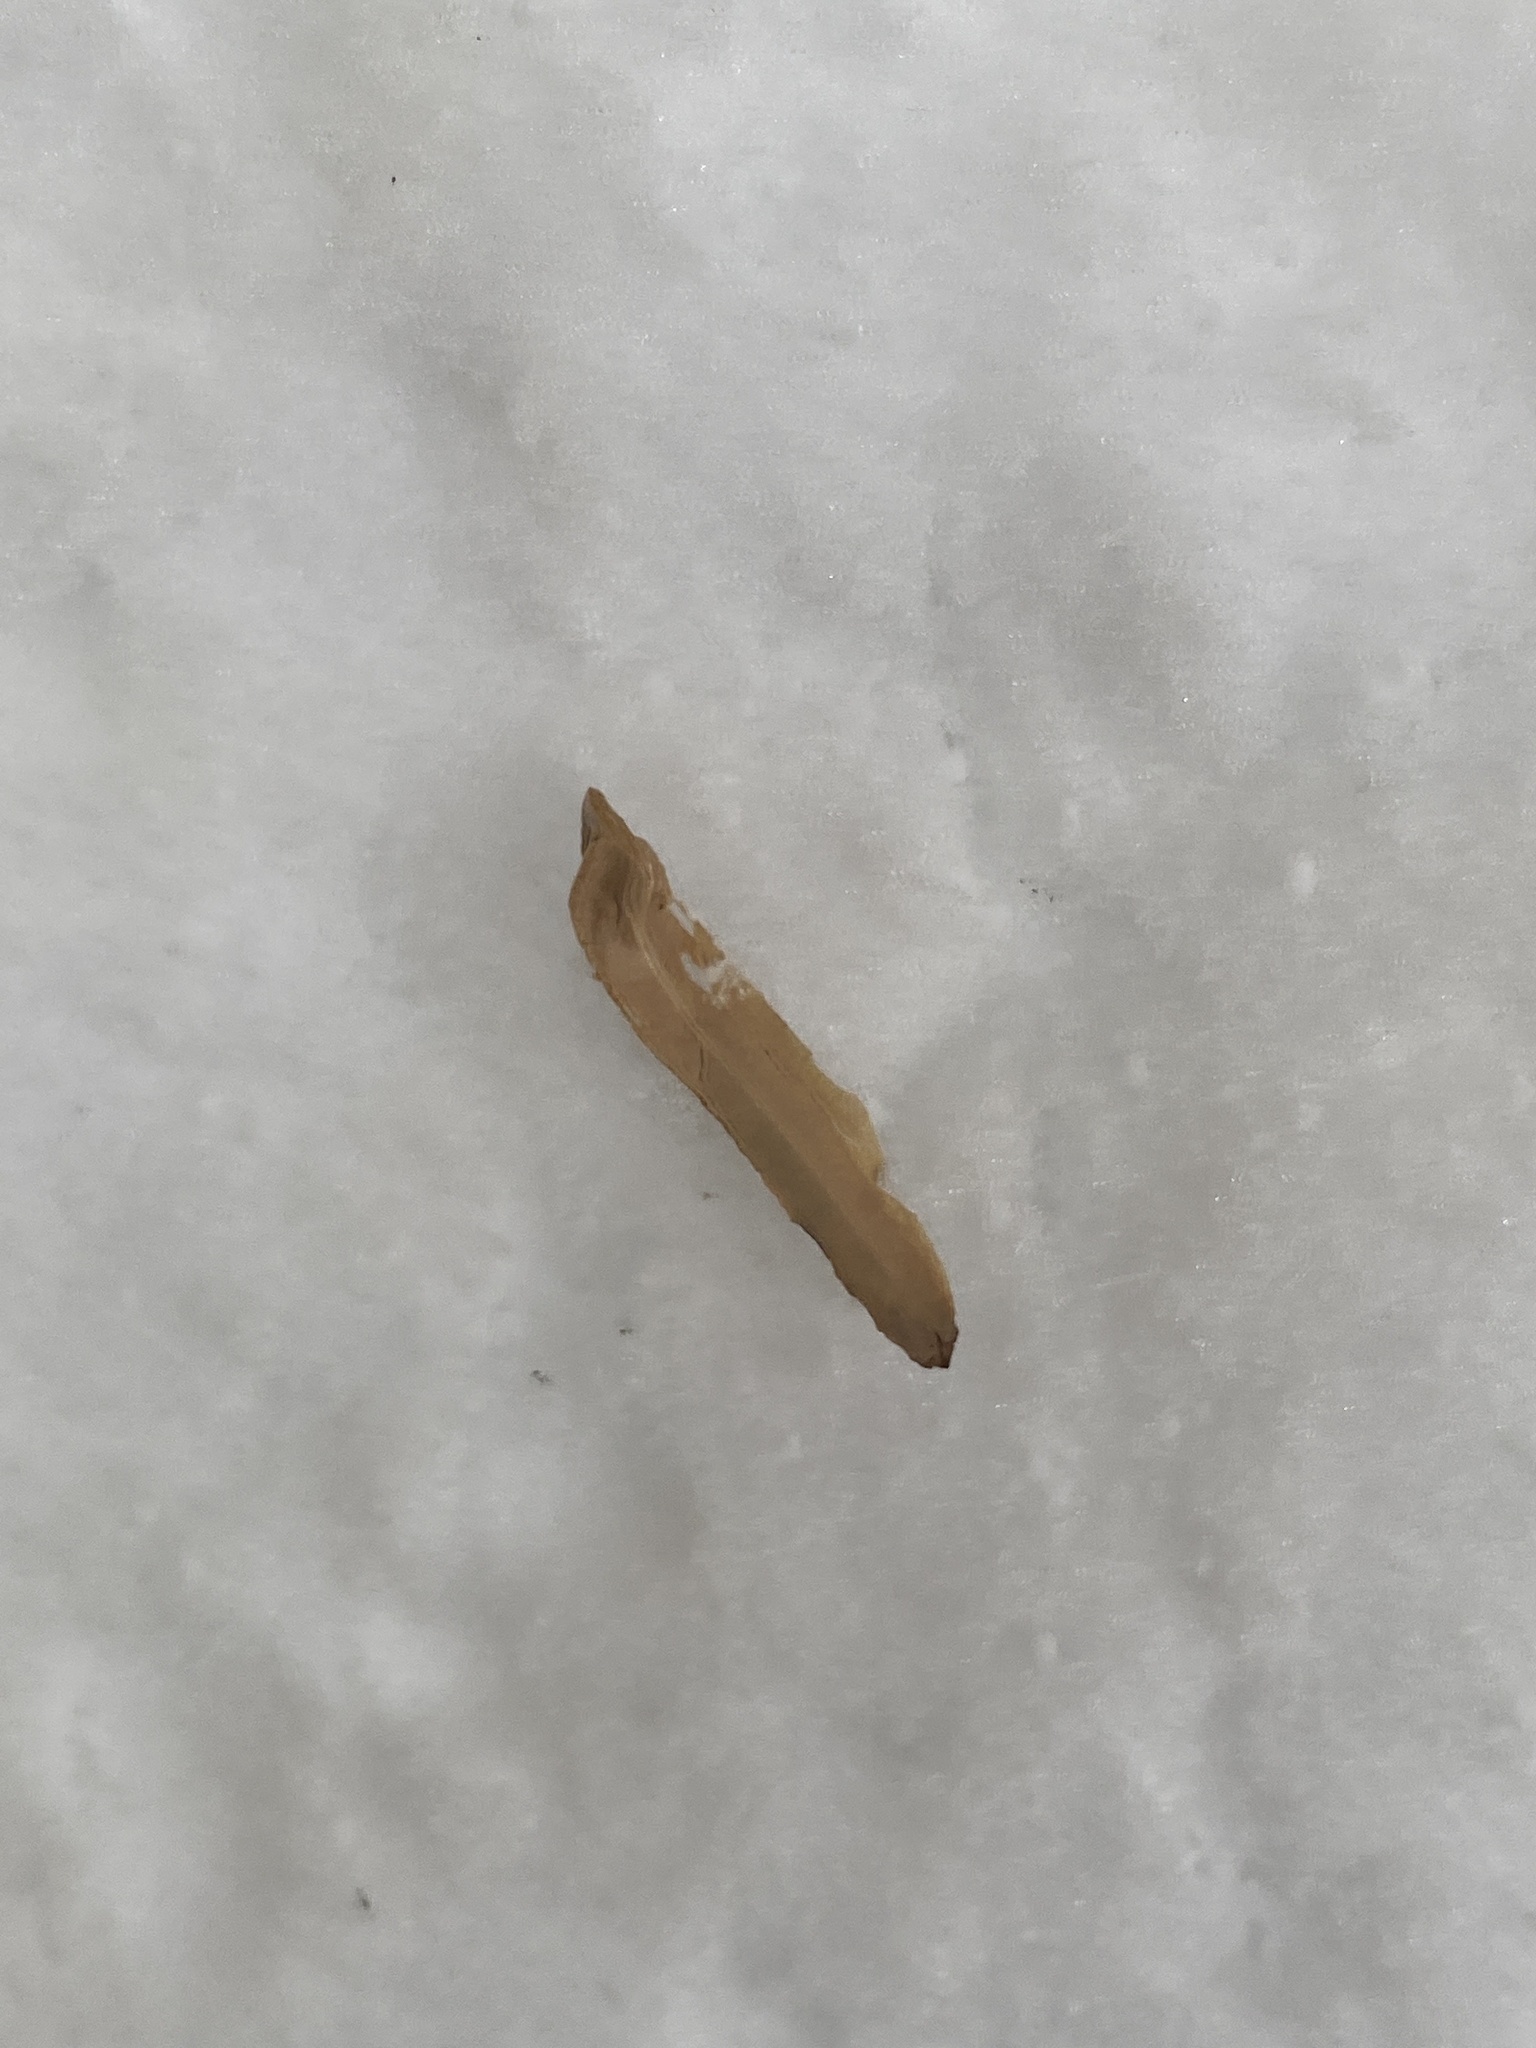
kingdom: Plantae
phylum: Tracheophyta
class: Magnoliopsida
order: Magnoliales
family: Magnoliaceae
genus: Liriodendron
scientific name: Liriodendron tulipifera
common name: Tulip tree
